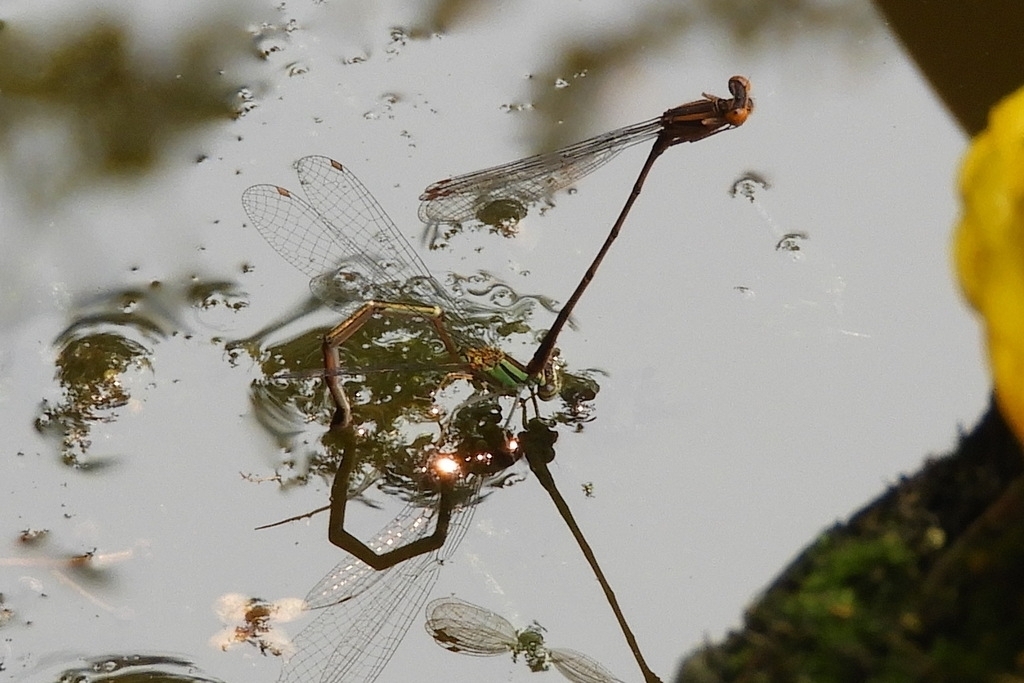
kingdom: Animalia
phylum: Arthropoda
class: Insecta
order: Odonata
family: Coenagrionidae
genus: Enallagma
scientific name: Enallagma signatum
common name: Orange bluet
